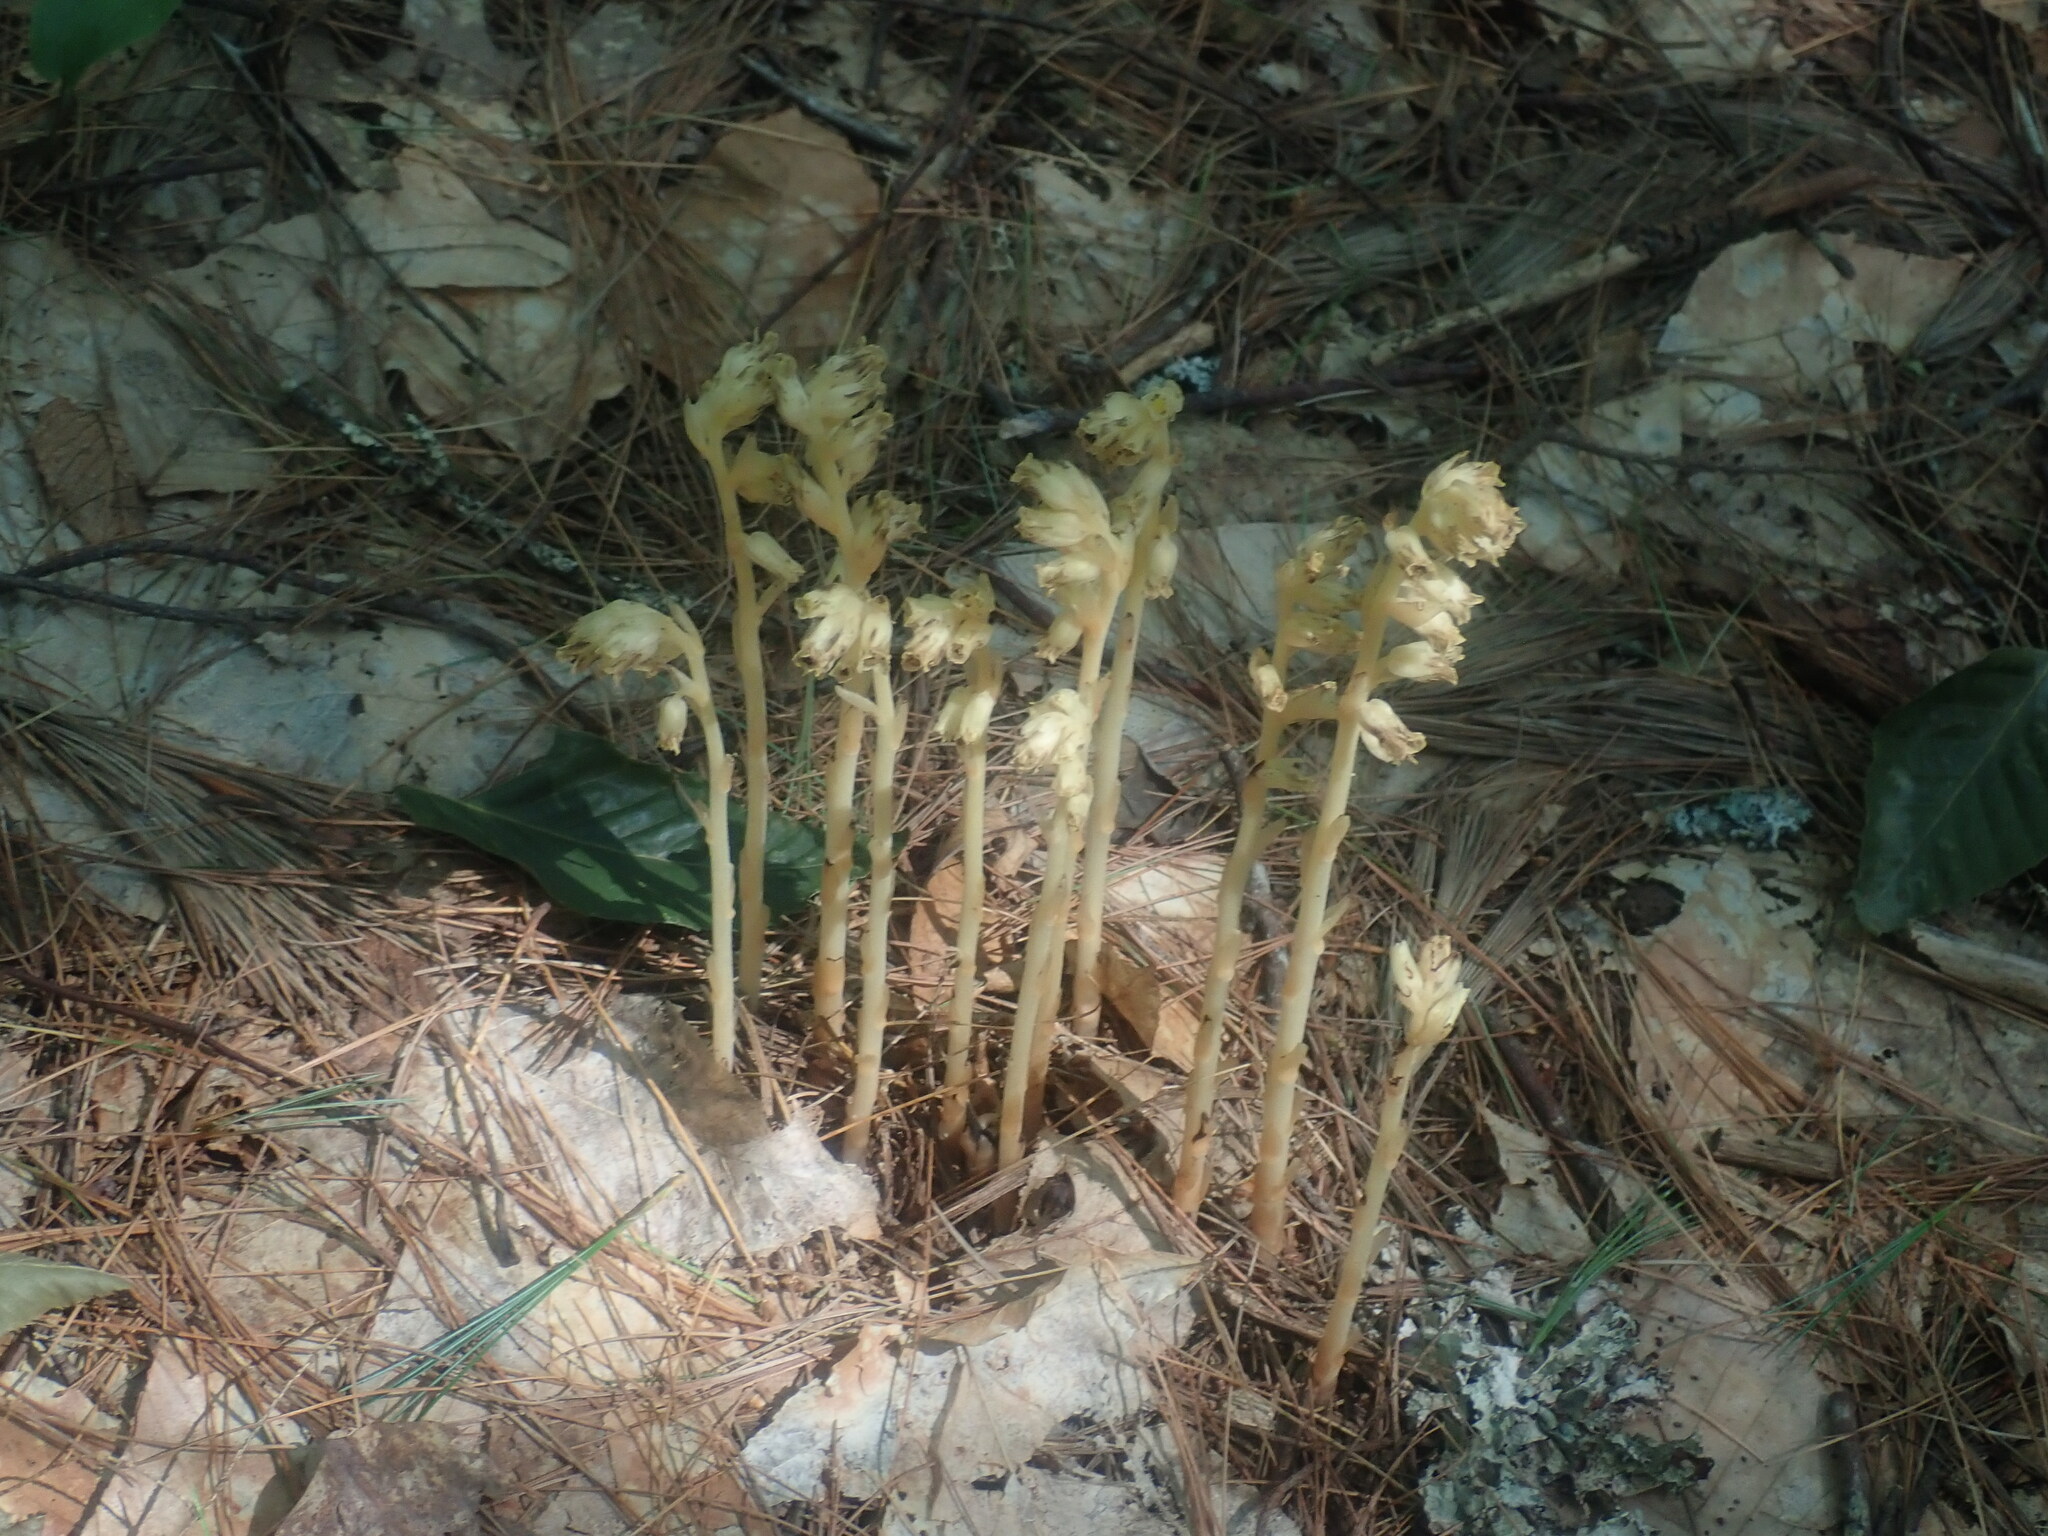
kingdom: Plantae
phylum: Tracheophyta
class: Magnoliopsida
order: Ericales
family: Ericaceae
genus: Hypopitys
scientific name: Hypopitys monotropa
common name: Yellow bird's-nest
